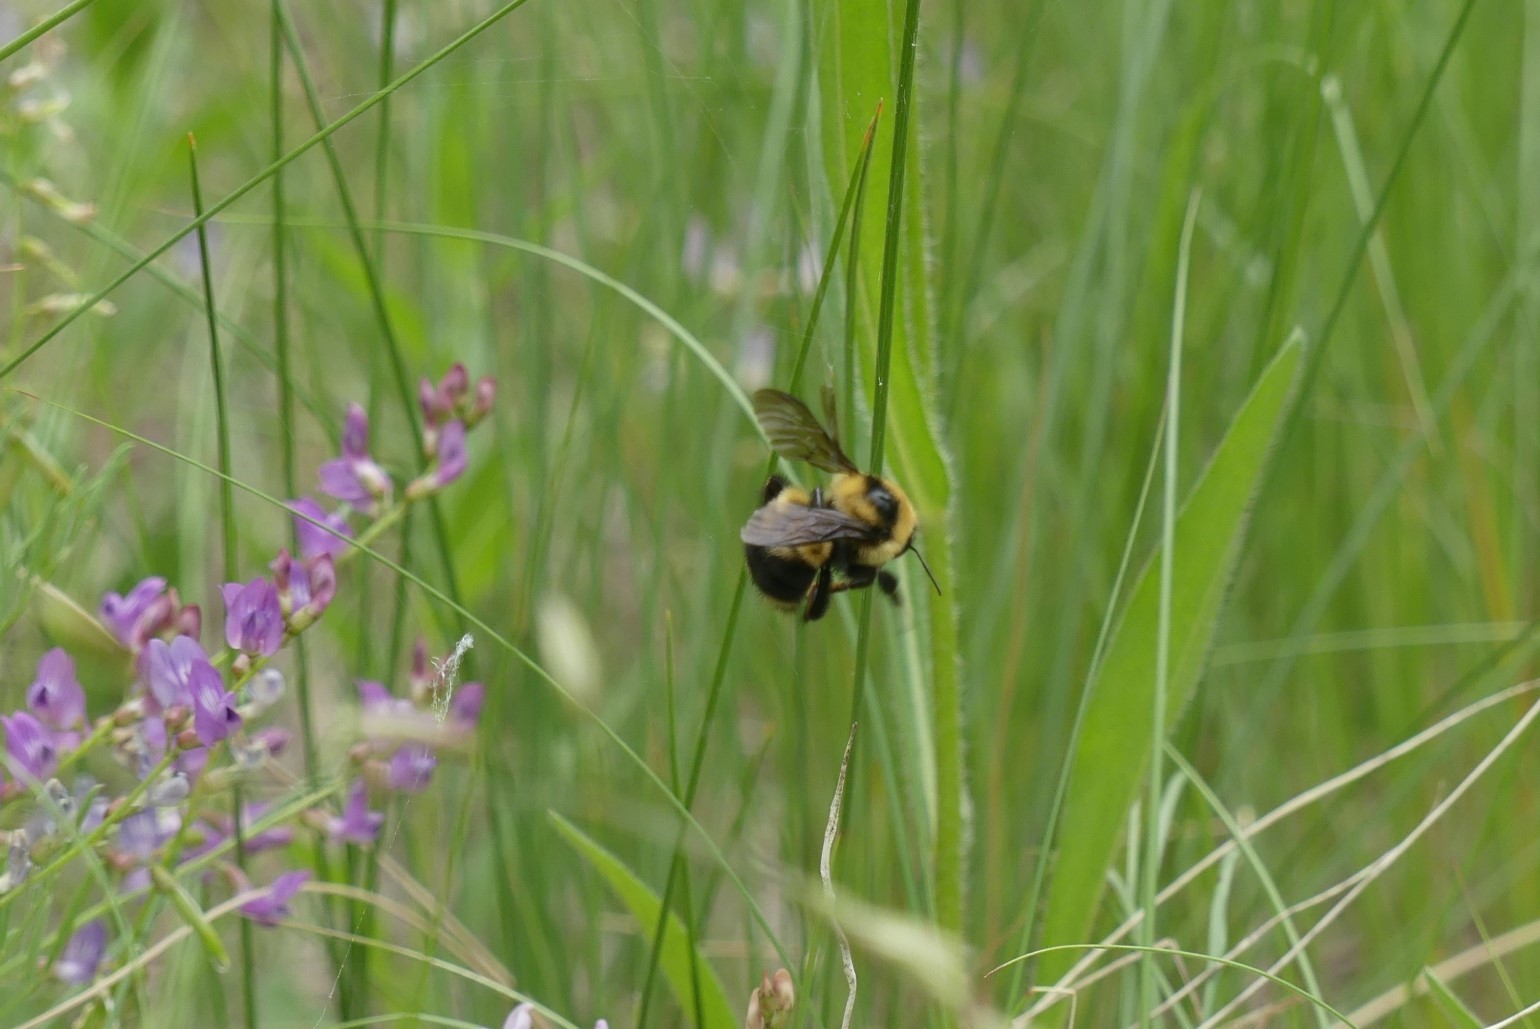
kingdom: Animalia
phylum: Arthropoda
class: Insecta
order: Hymenoptera
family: Apidae
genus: Bombus
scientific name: Bombus rufocinctus
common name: Red-belted bumble bee
